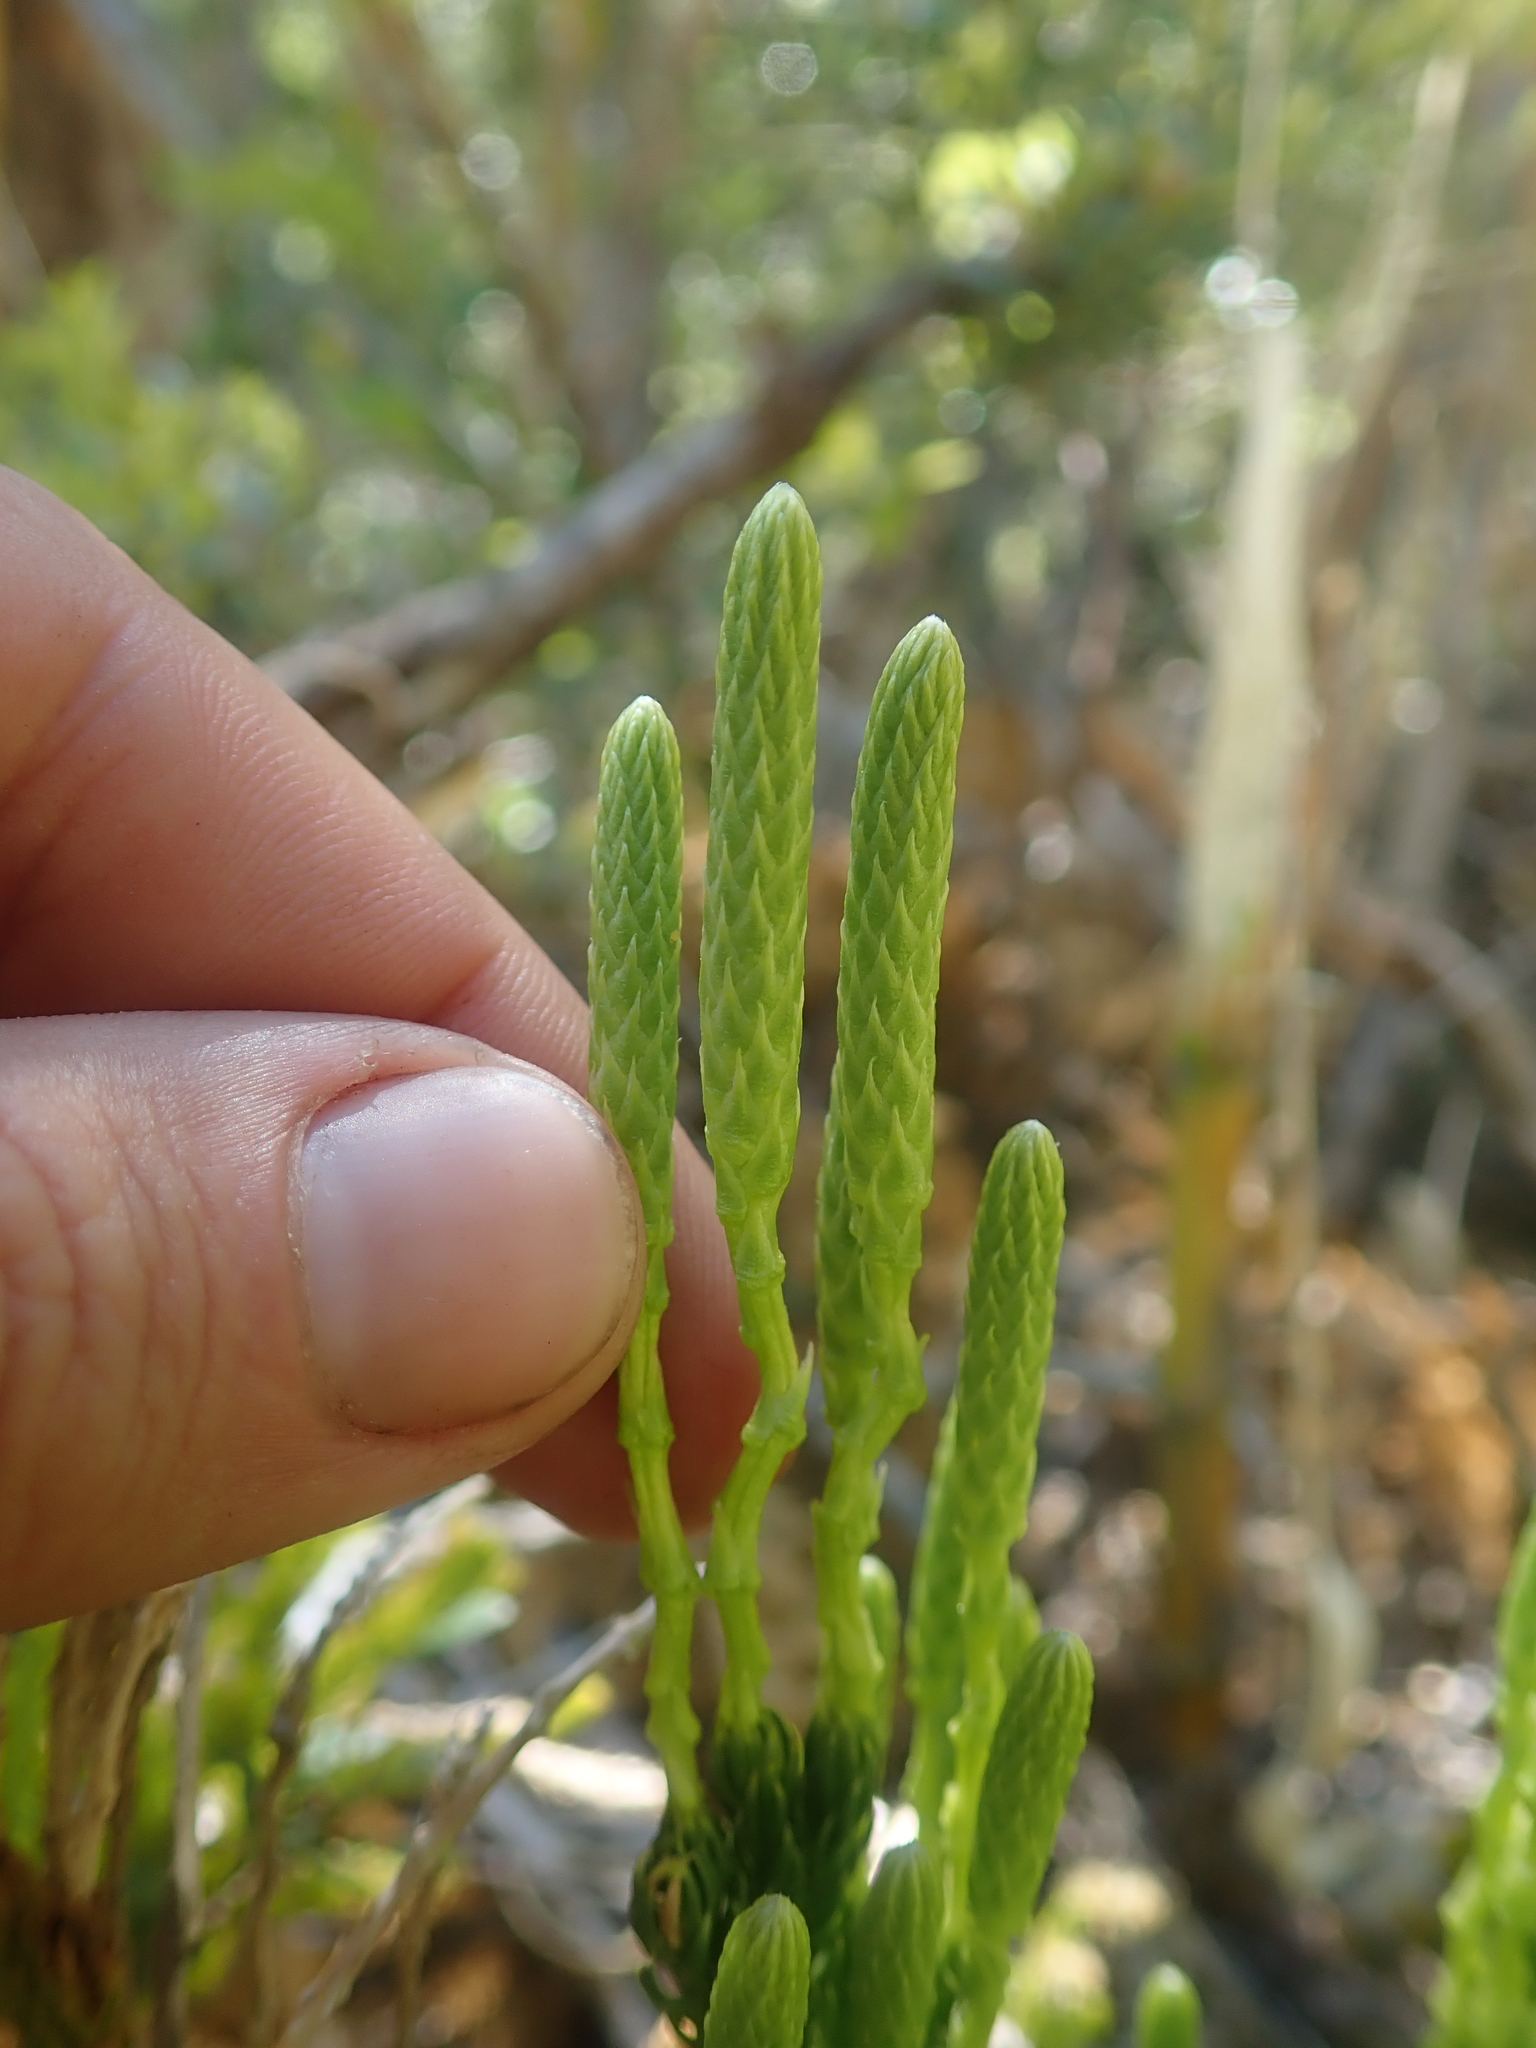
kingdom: Plantae
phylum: Tracheophyta
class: Lycopodiopsida
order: Lycopodiales
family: Lycopodiaceae
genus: Austrolycopodium
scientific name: Austrolycopodium magellanicum
